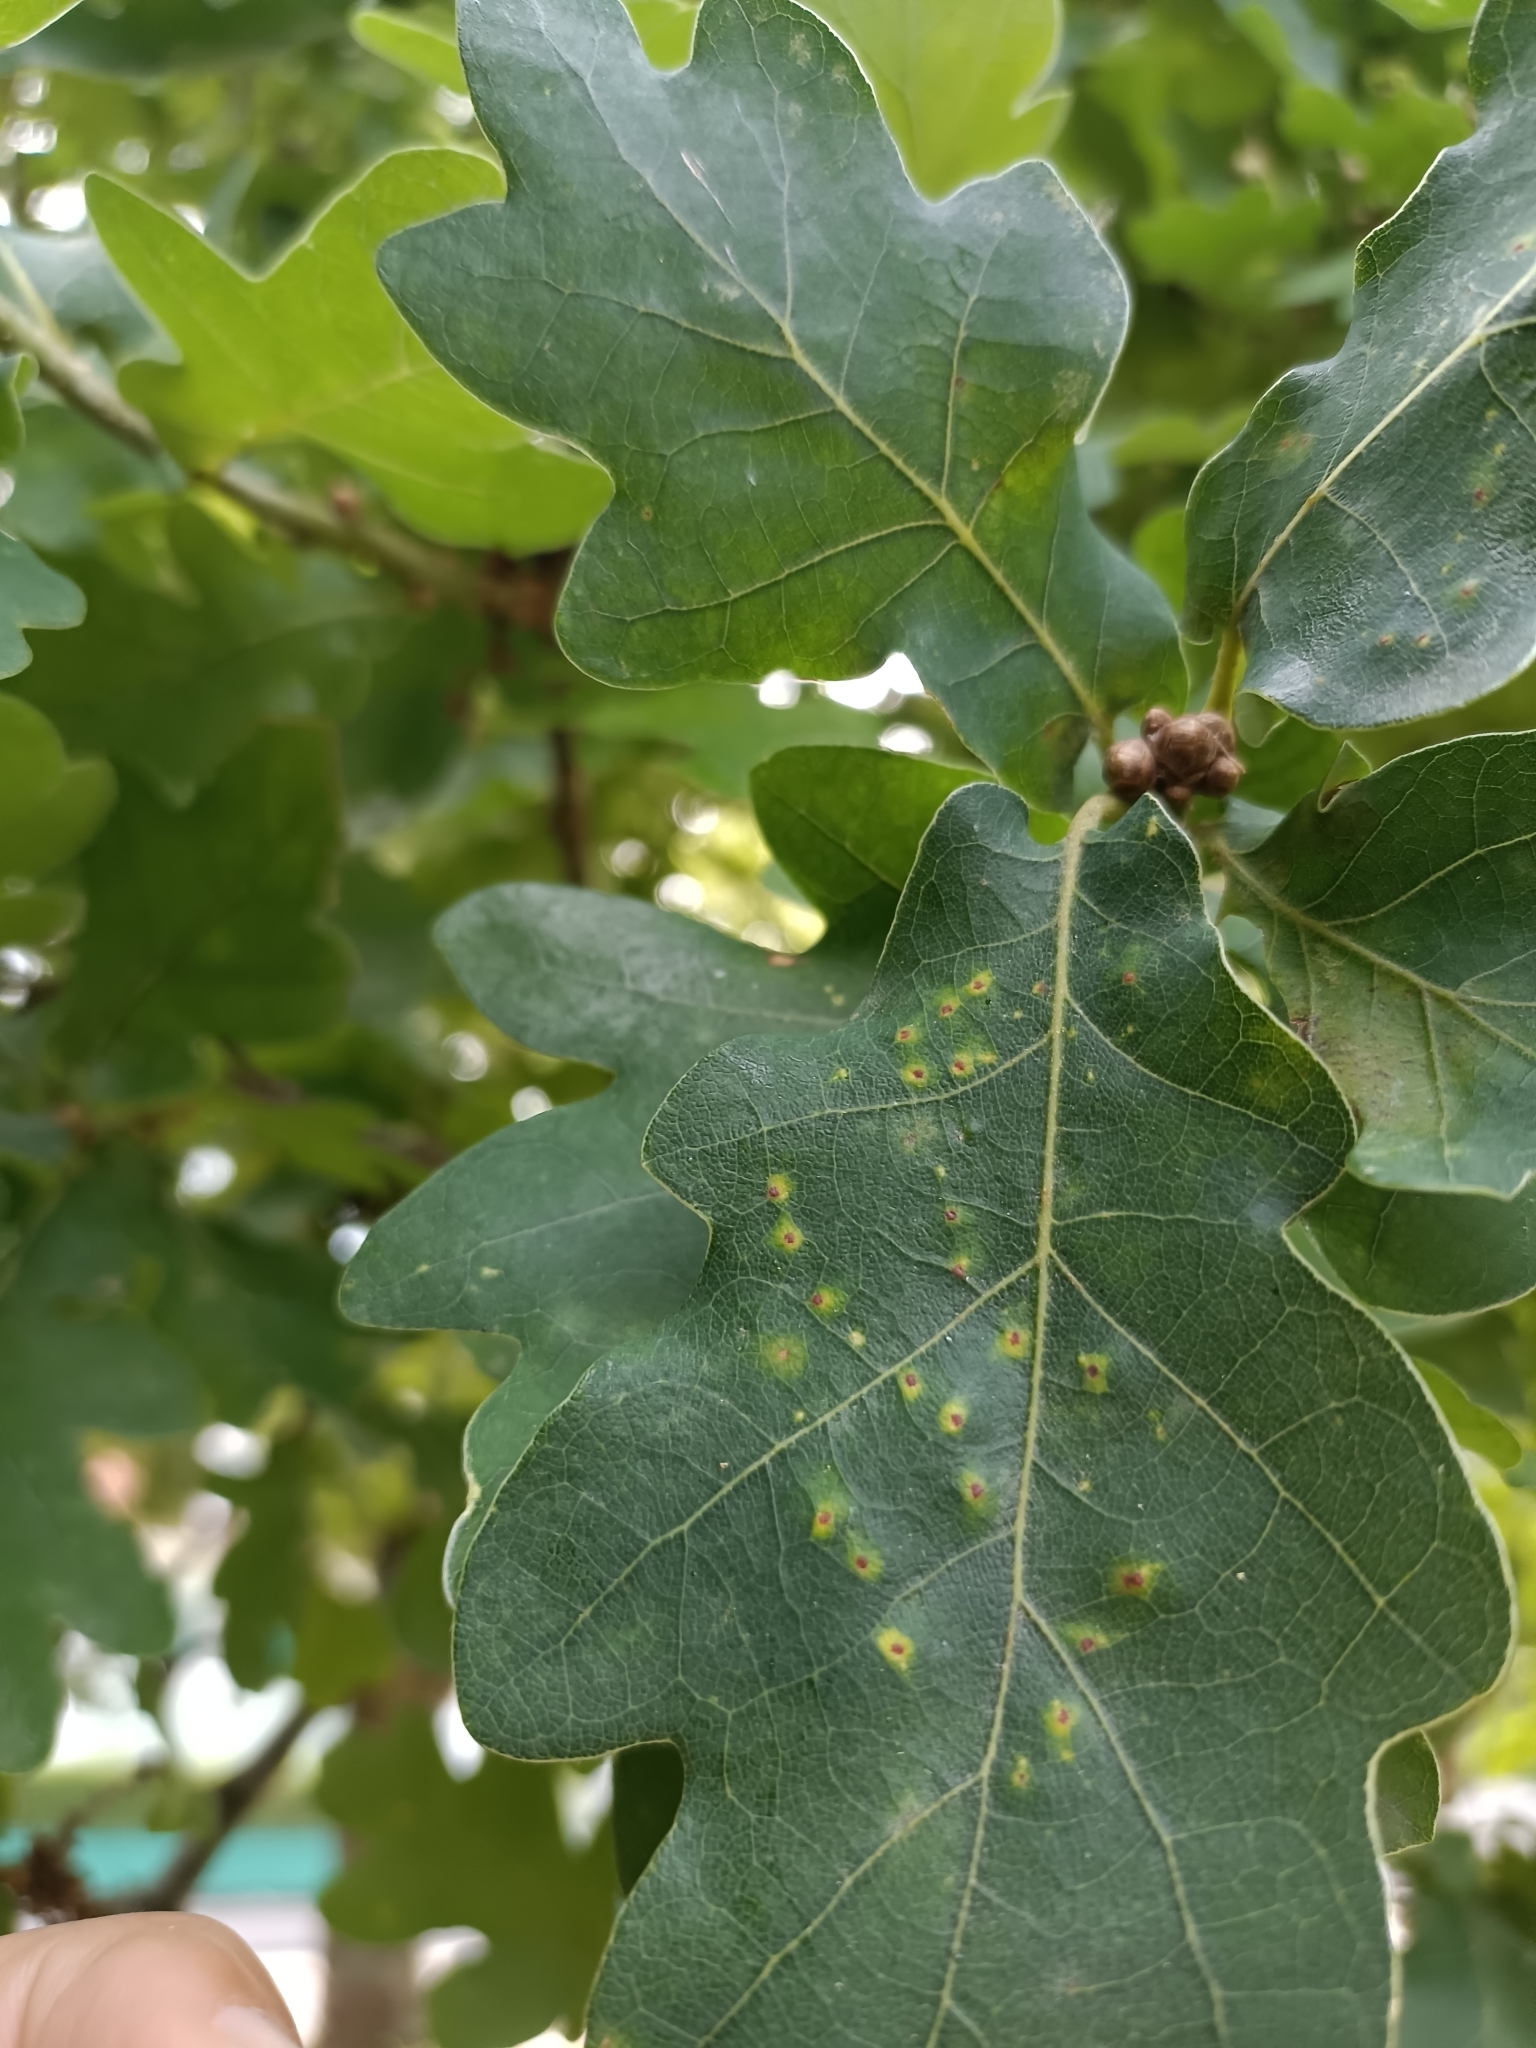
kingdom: Animalia
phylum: Arthropoda
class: Insecta
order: Hymenoptera
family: Cynipidae
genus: Neuroterus
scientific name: Neuroterus numismalis
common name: Silk-button spangle gall
